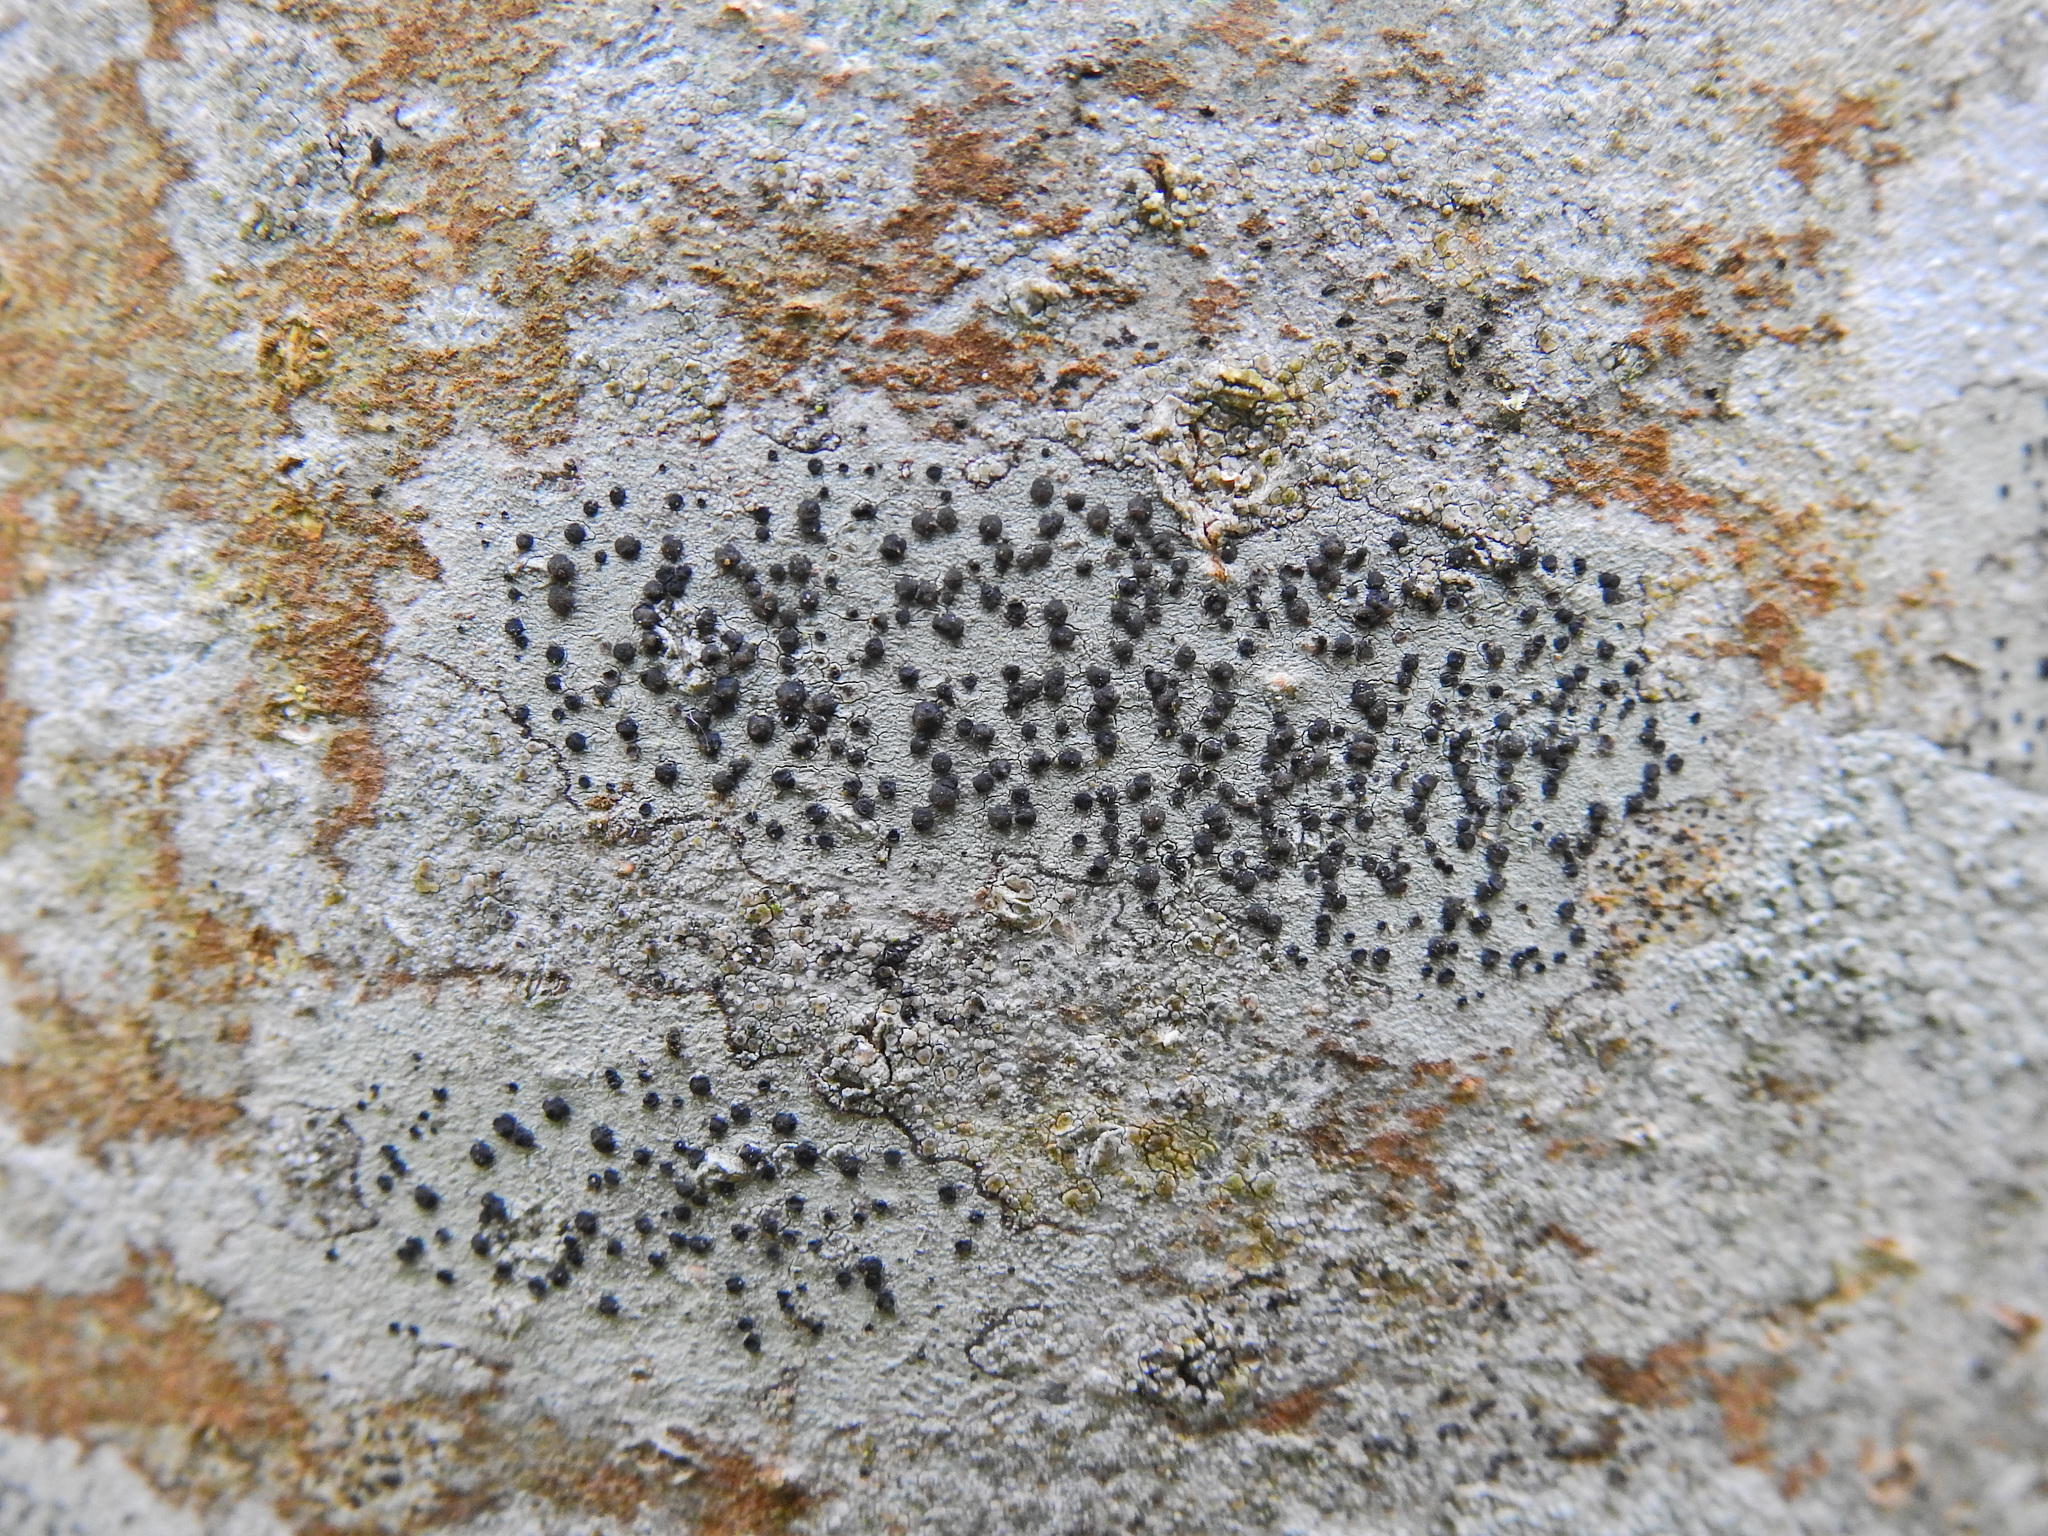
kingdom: Fungi
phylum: Ascomycota
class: Lecanoromycetes
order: Lecanorales
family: Lecanoraceae
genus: Lecidella
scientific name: Lecidella elaeochroma
